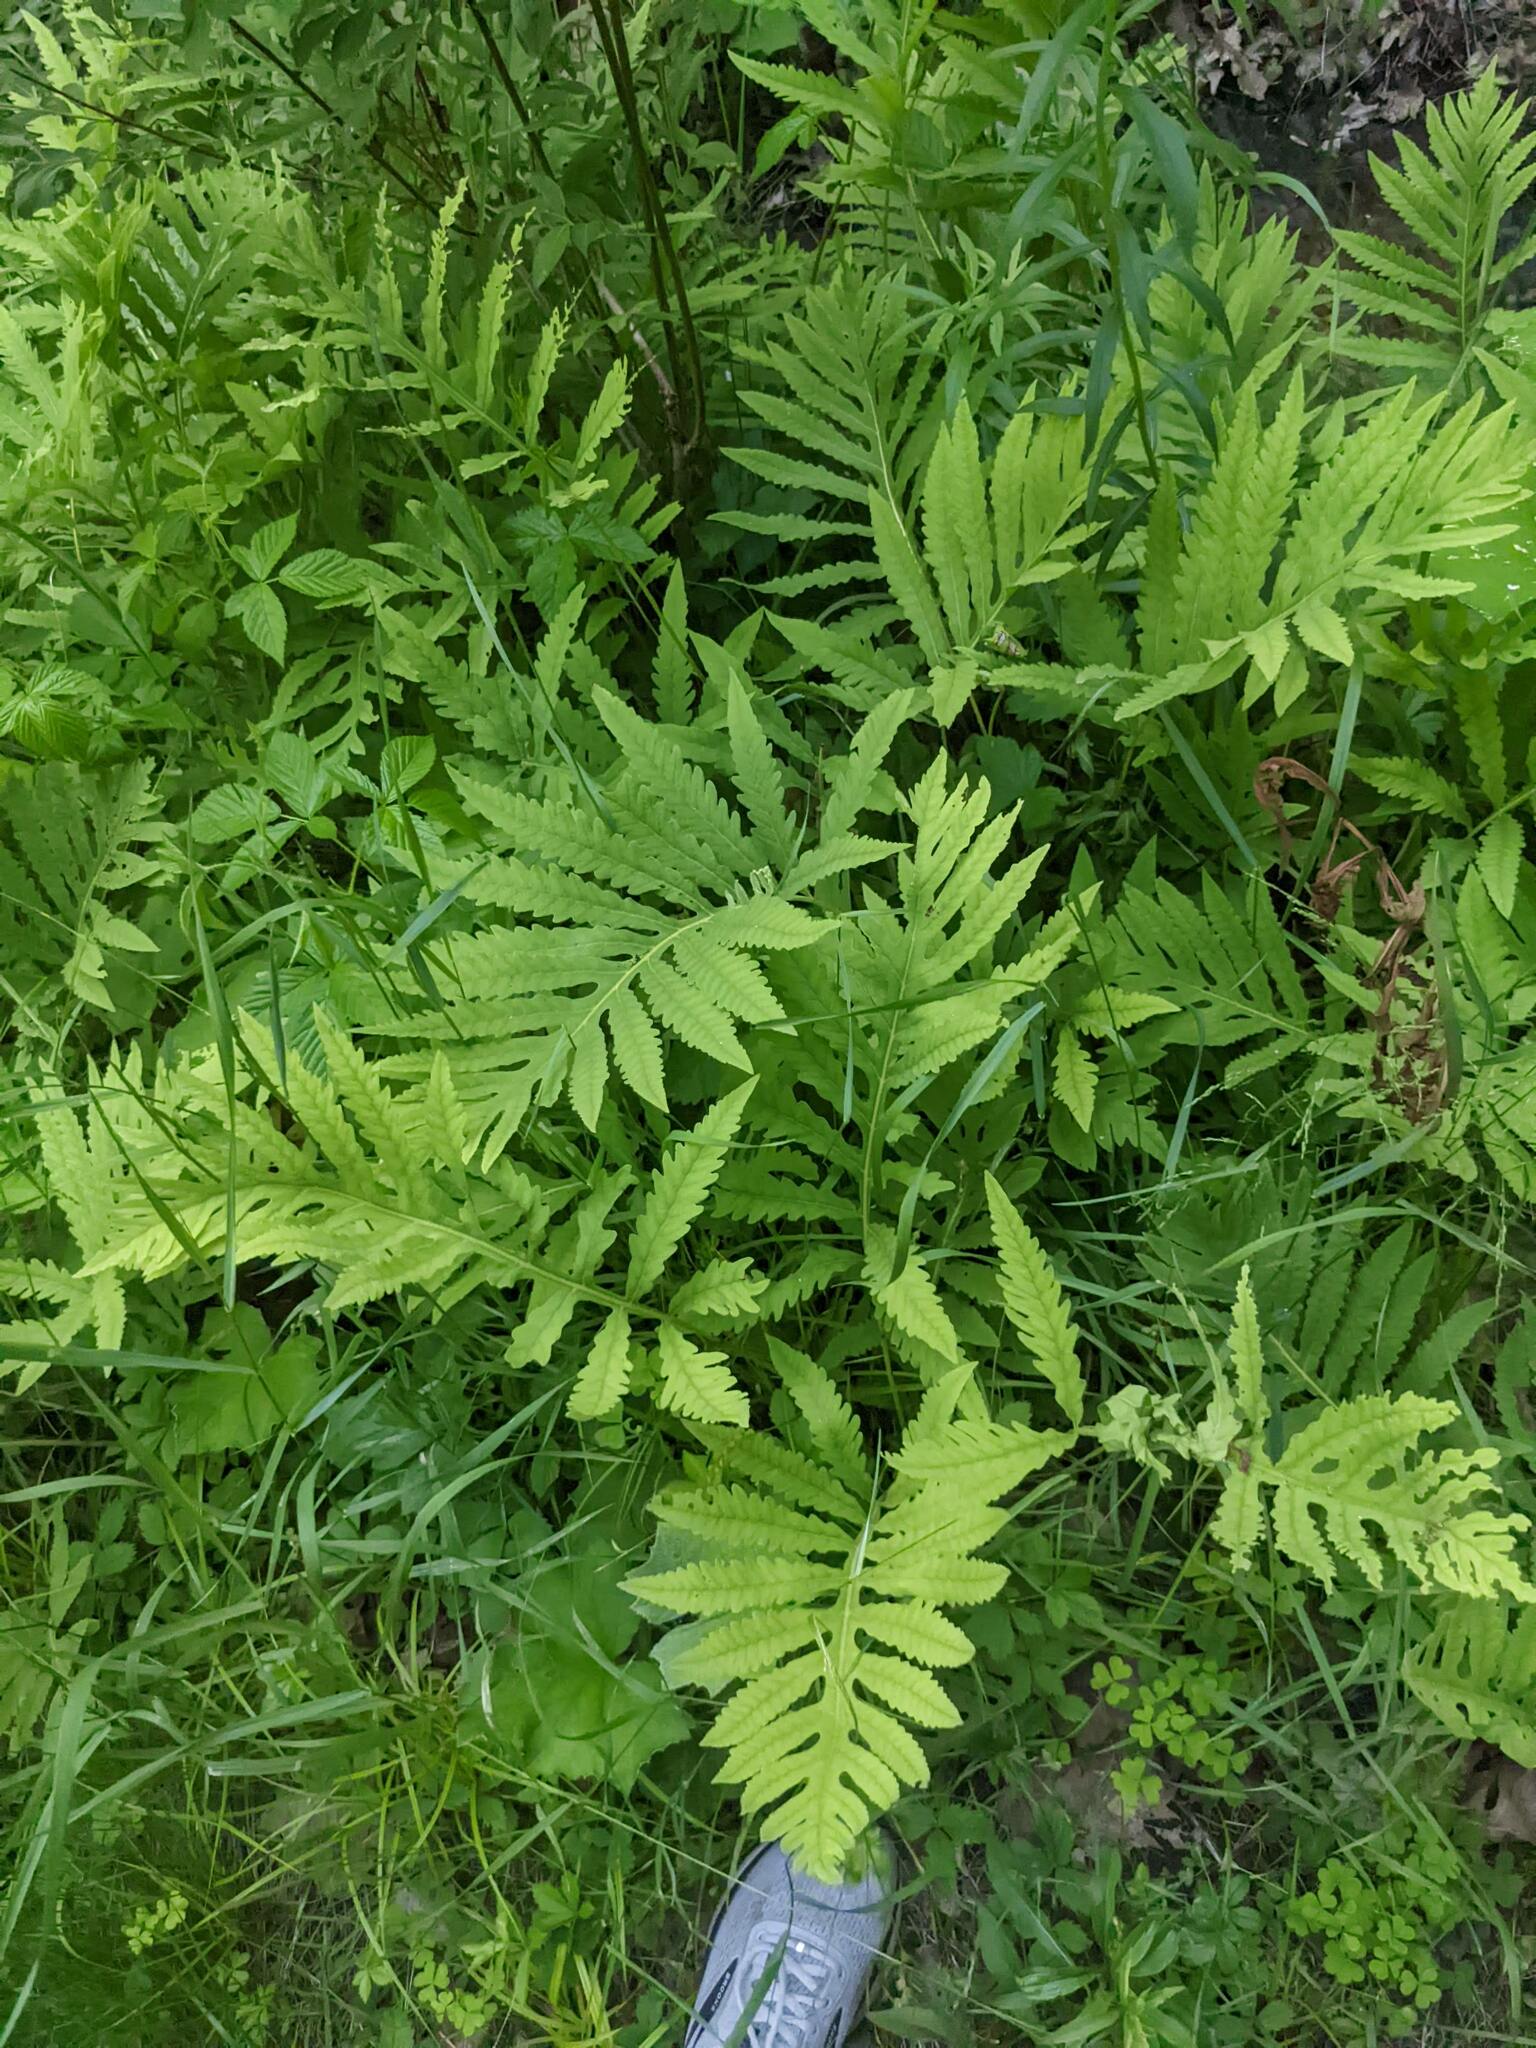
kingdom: Plantae
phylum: Tracheophyta
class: Polypodiopsida
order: Polypodiales
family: Onocleaceae
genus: Onoclea
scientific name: Onoclea sensibilis
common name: Sensitive fern
